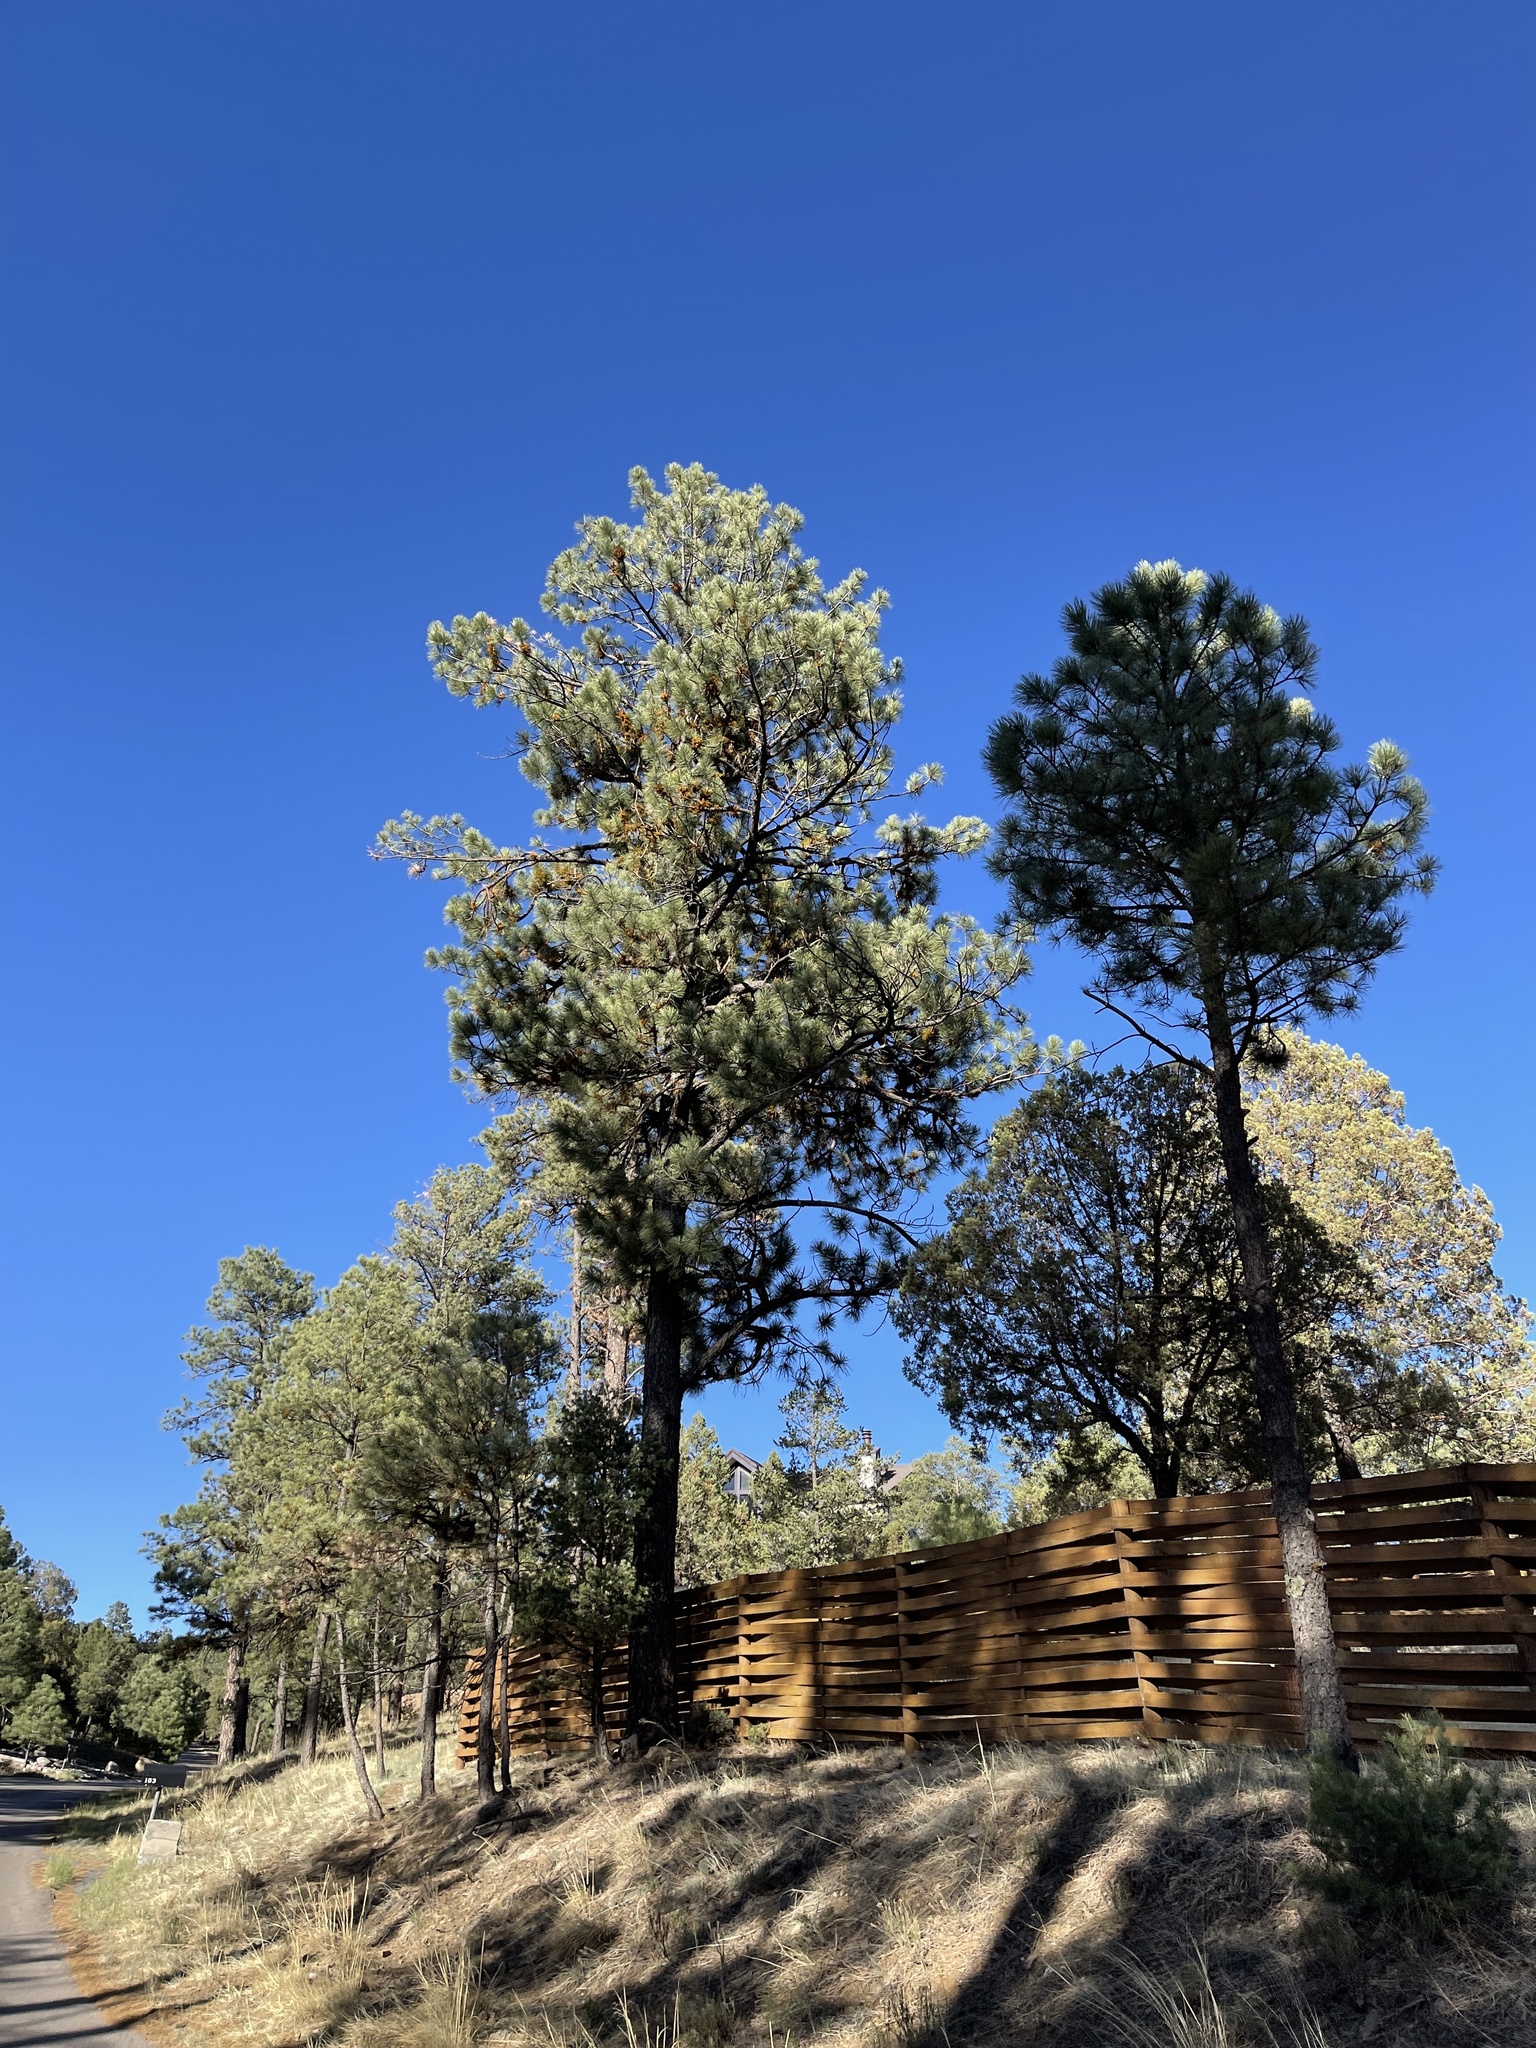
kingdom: Plantae
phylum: Tracheophyta
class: Pinopsida
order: Pinales
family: Pinaceae
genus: Pinus
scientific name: Pinus ponderosa
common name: Western yellow-pine
